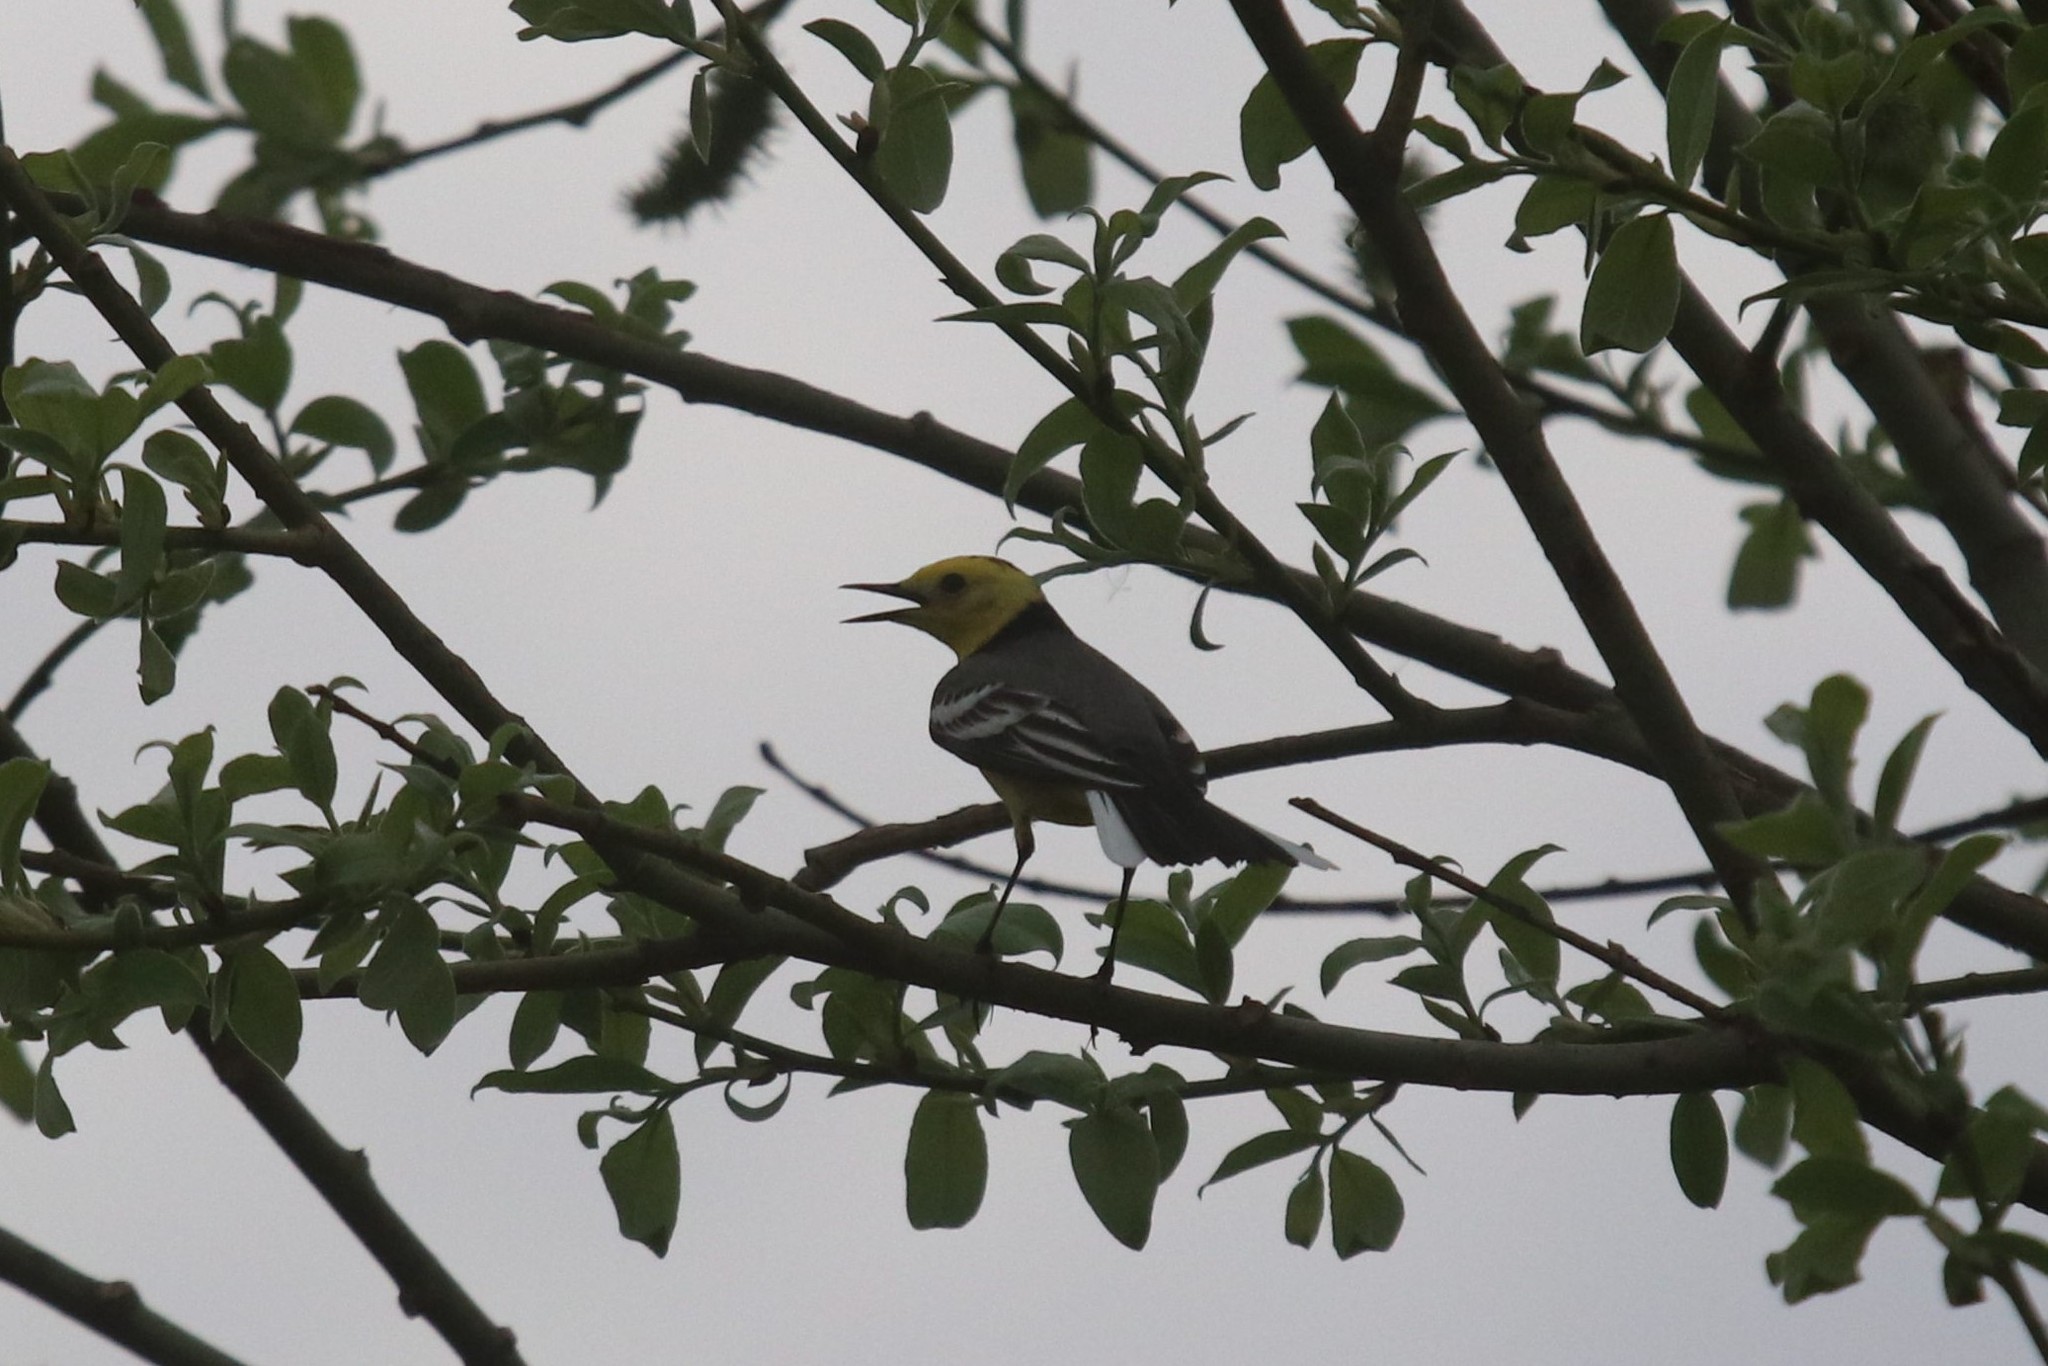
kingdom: Animalia
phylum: Chordata
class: Aves
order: Passeriformes
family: Motacillidae
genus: Motacilla
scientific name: Motacilla citreola
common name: Citrine wagtail
